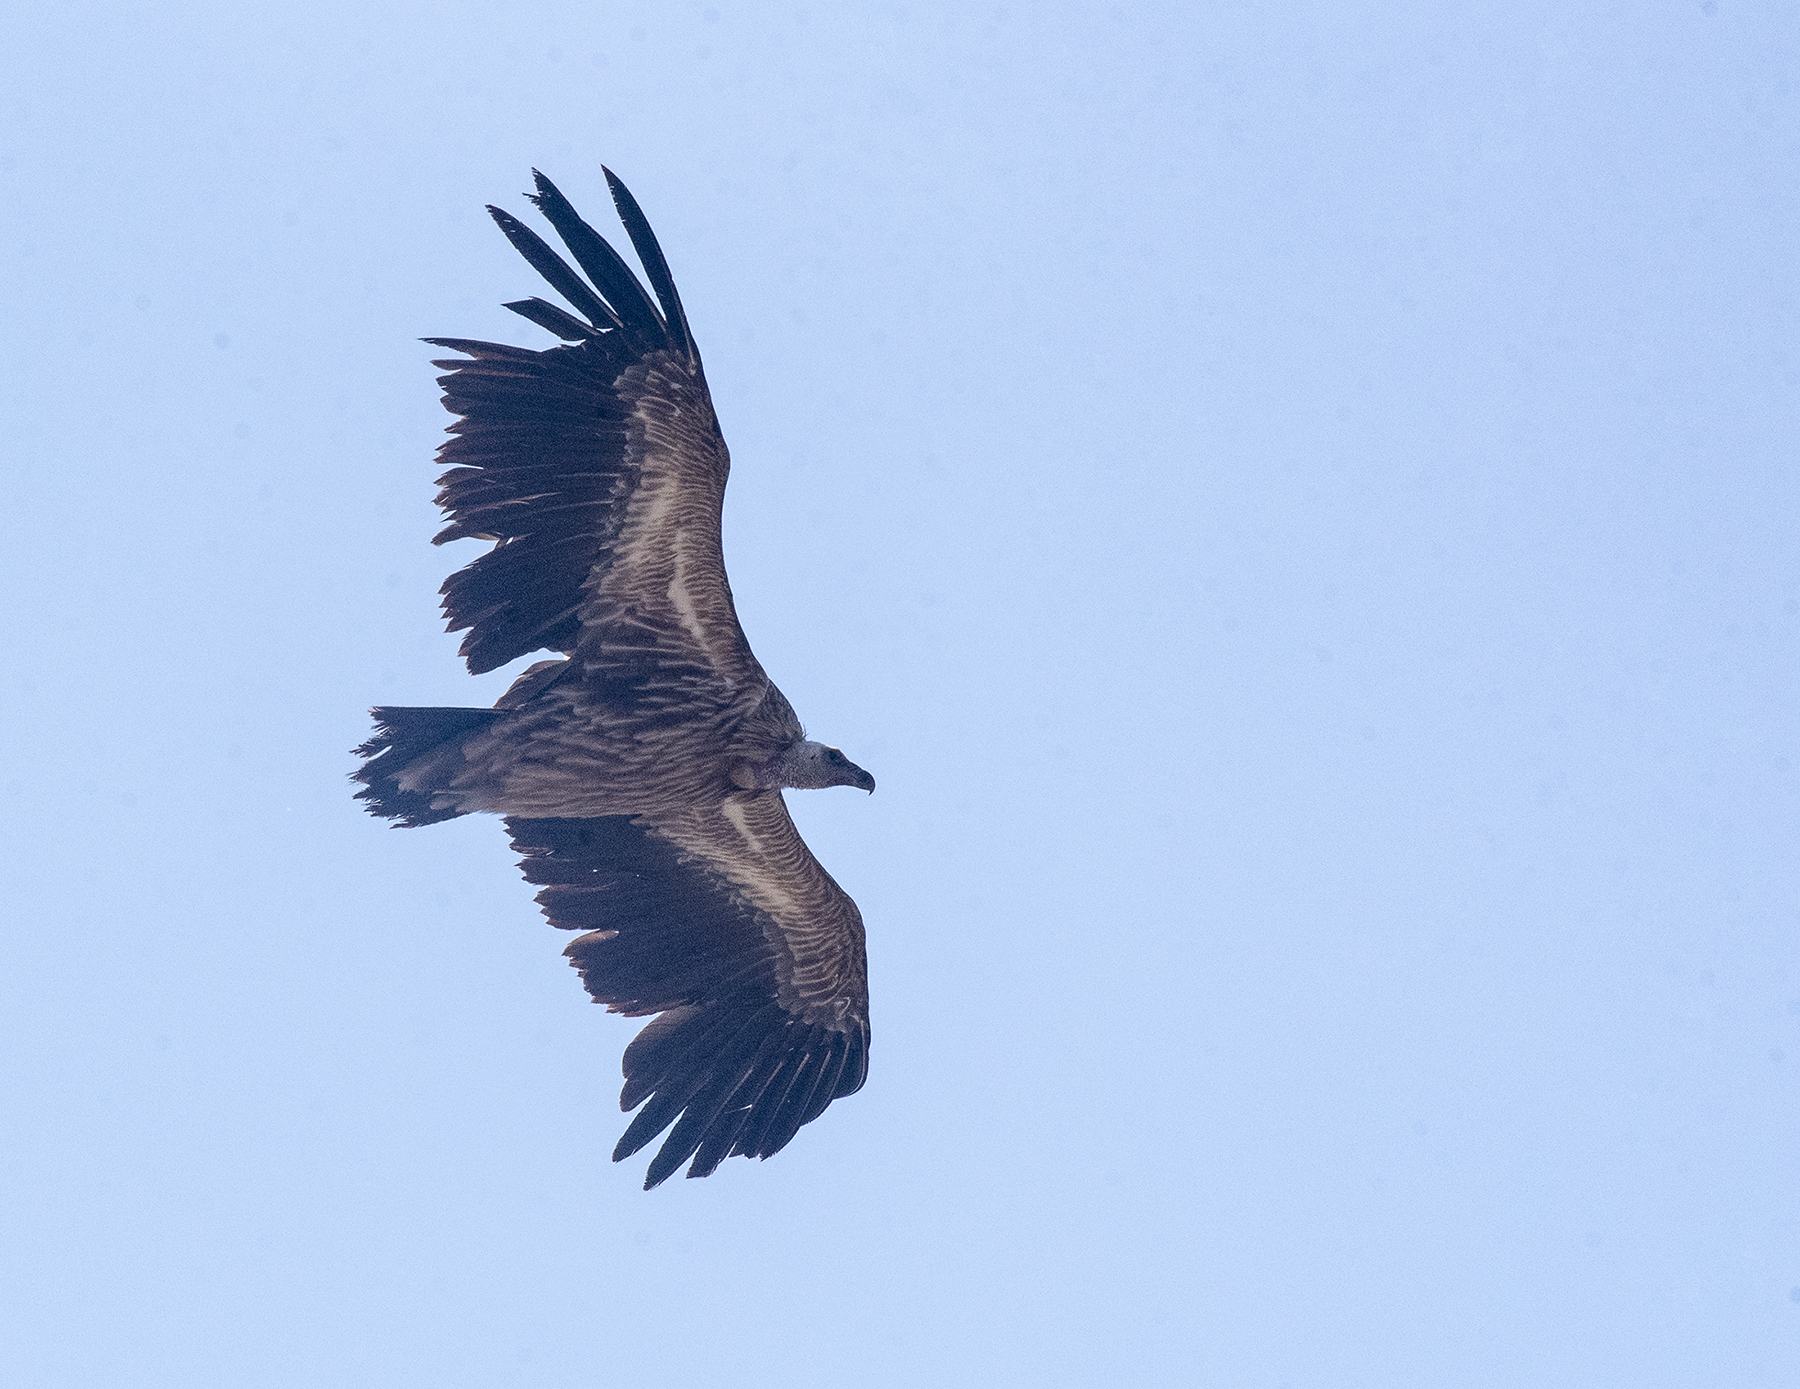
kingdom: Animalia
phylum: Chordata
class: Aves
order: Accipitriformes
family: Accipitridae
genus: Gyps
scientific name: Gyps himalayensis
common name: Himalayan griffon
